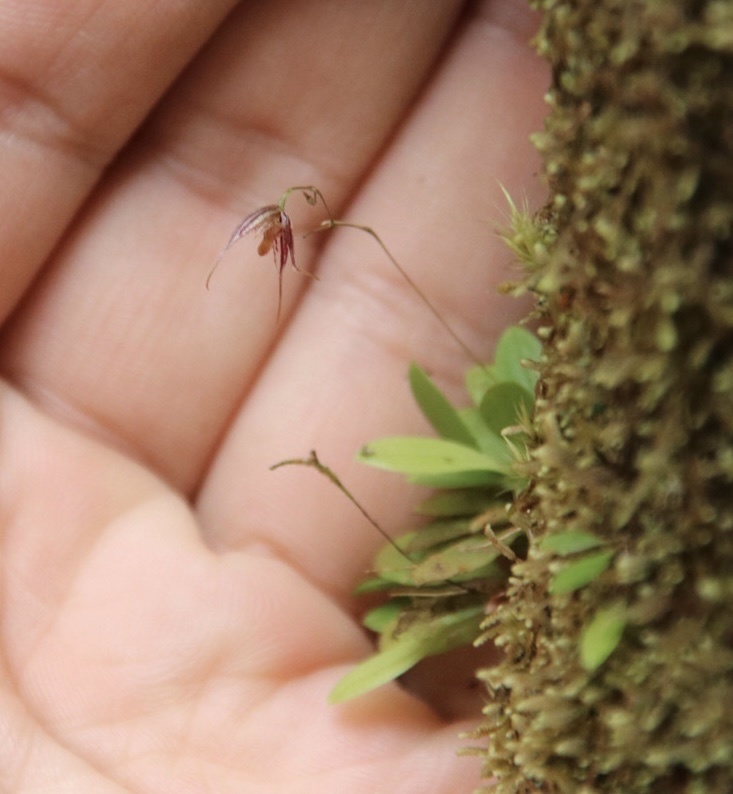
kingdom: Plantae
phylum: Tracheophyta
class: Liliopsida
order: Asparagales
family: Orchidaceae
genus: Muscarella
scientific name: Muscarella aristata
